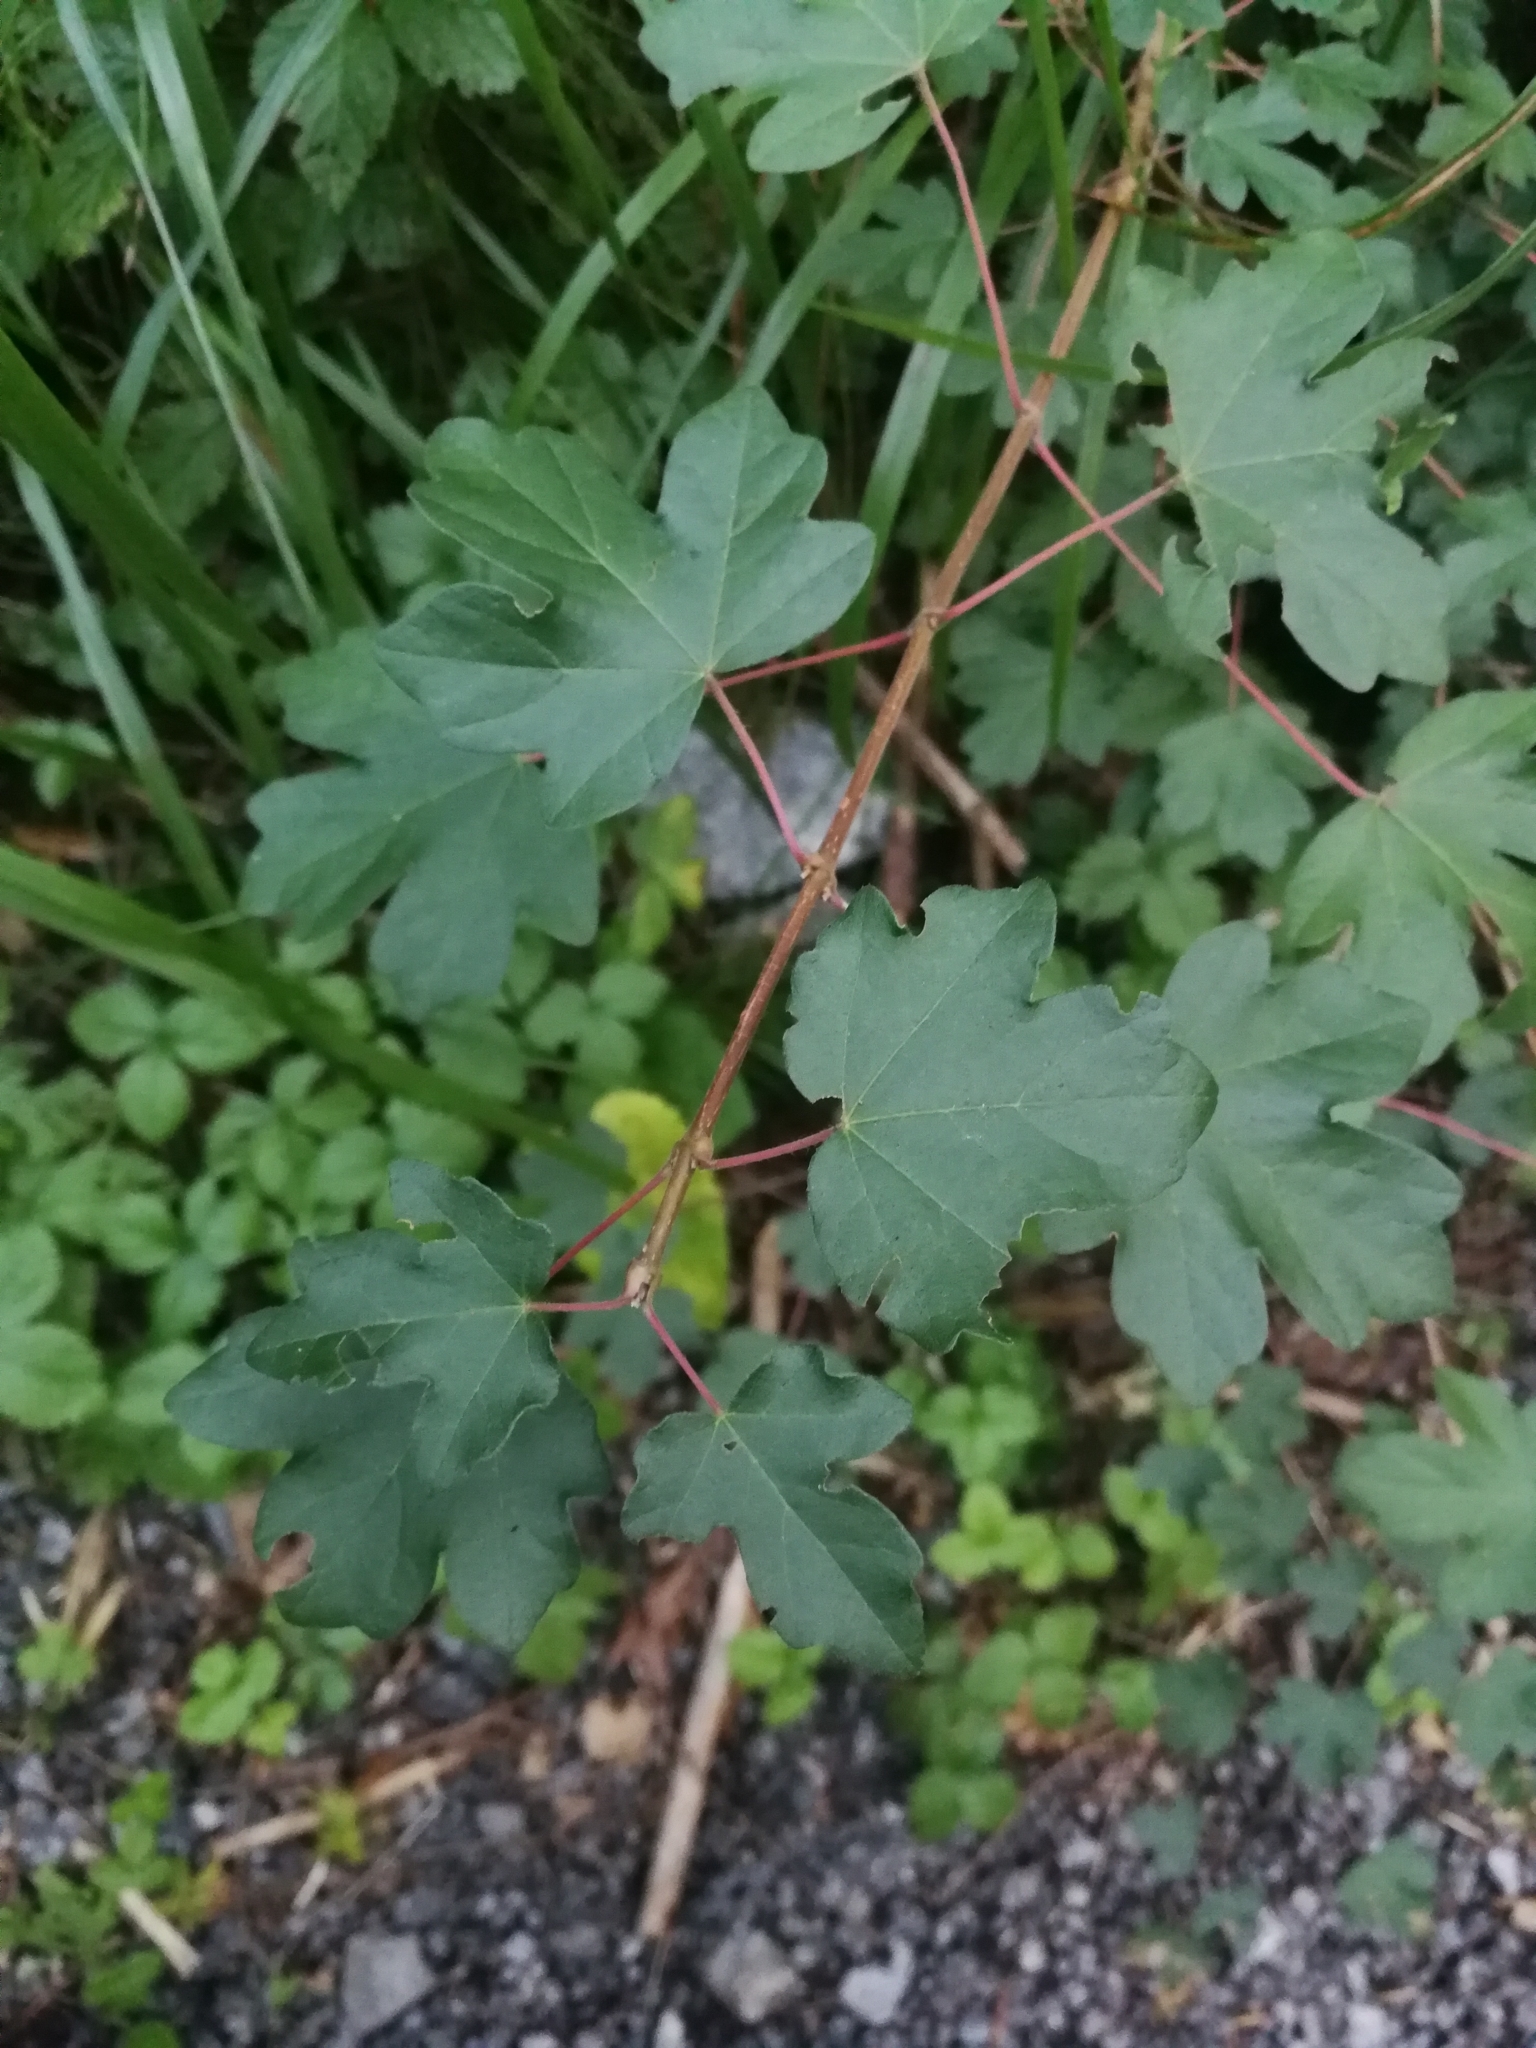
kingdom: Plantae
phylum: Tracheophyta
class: Magnoliopsida
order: Sapindales
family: Sapindaceae
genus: Acer
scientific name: Acer campestre
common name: Field maple
